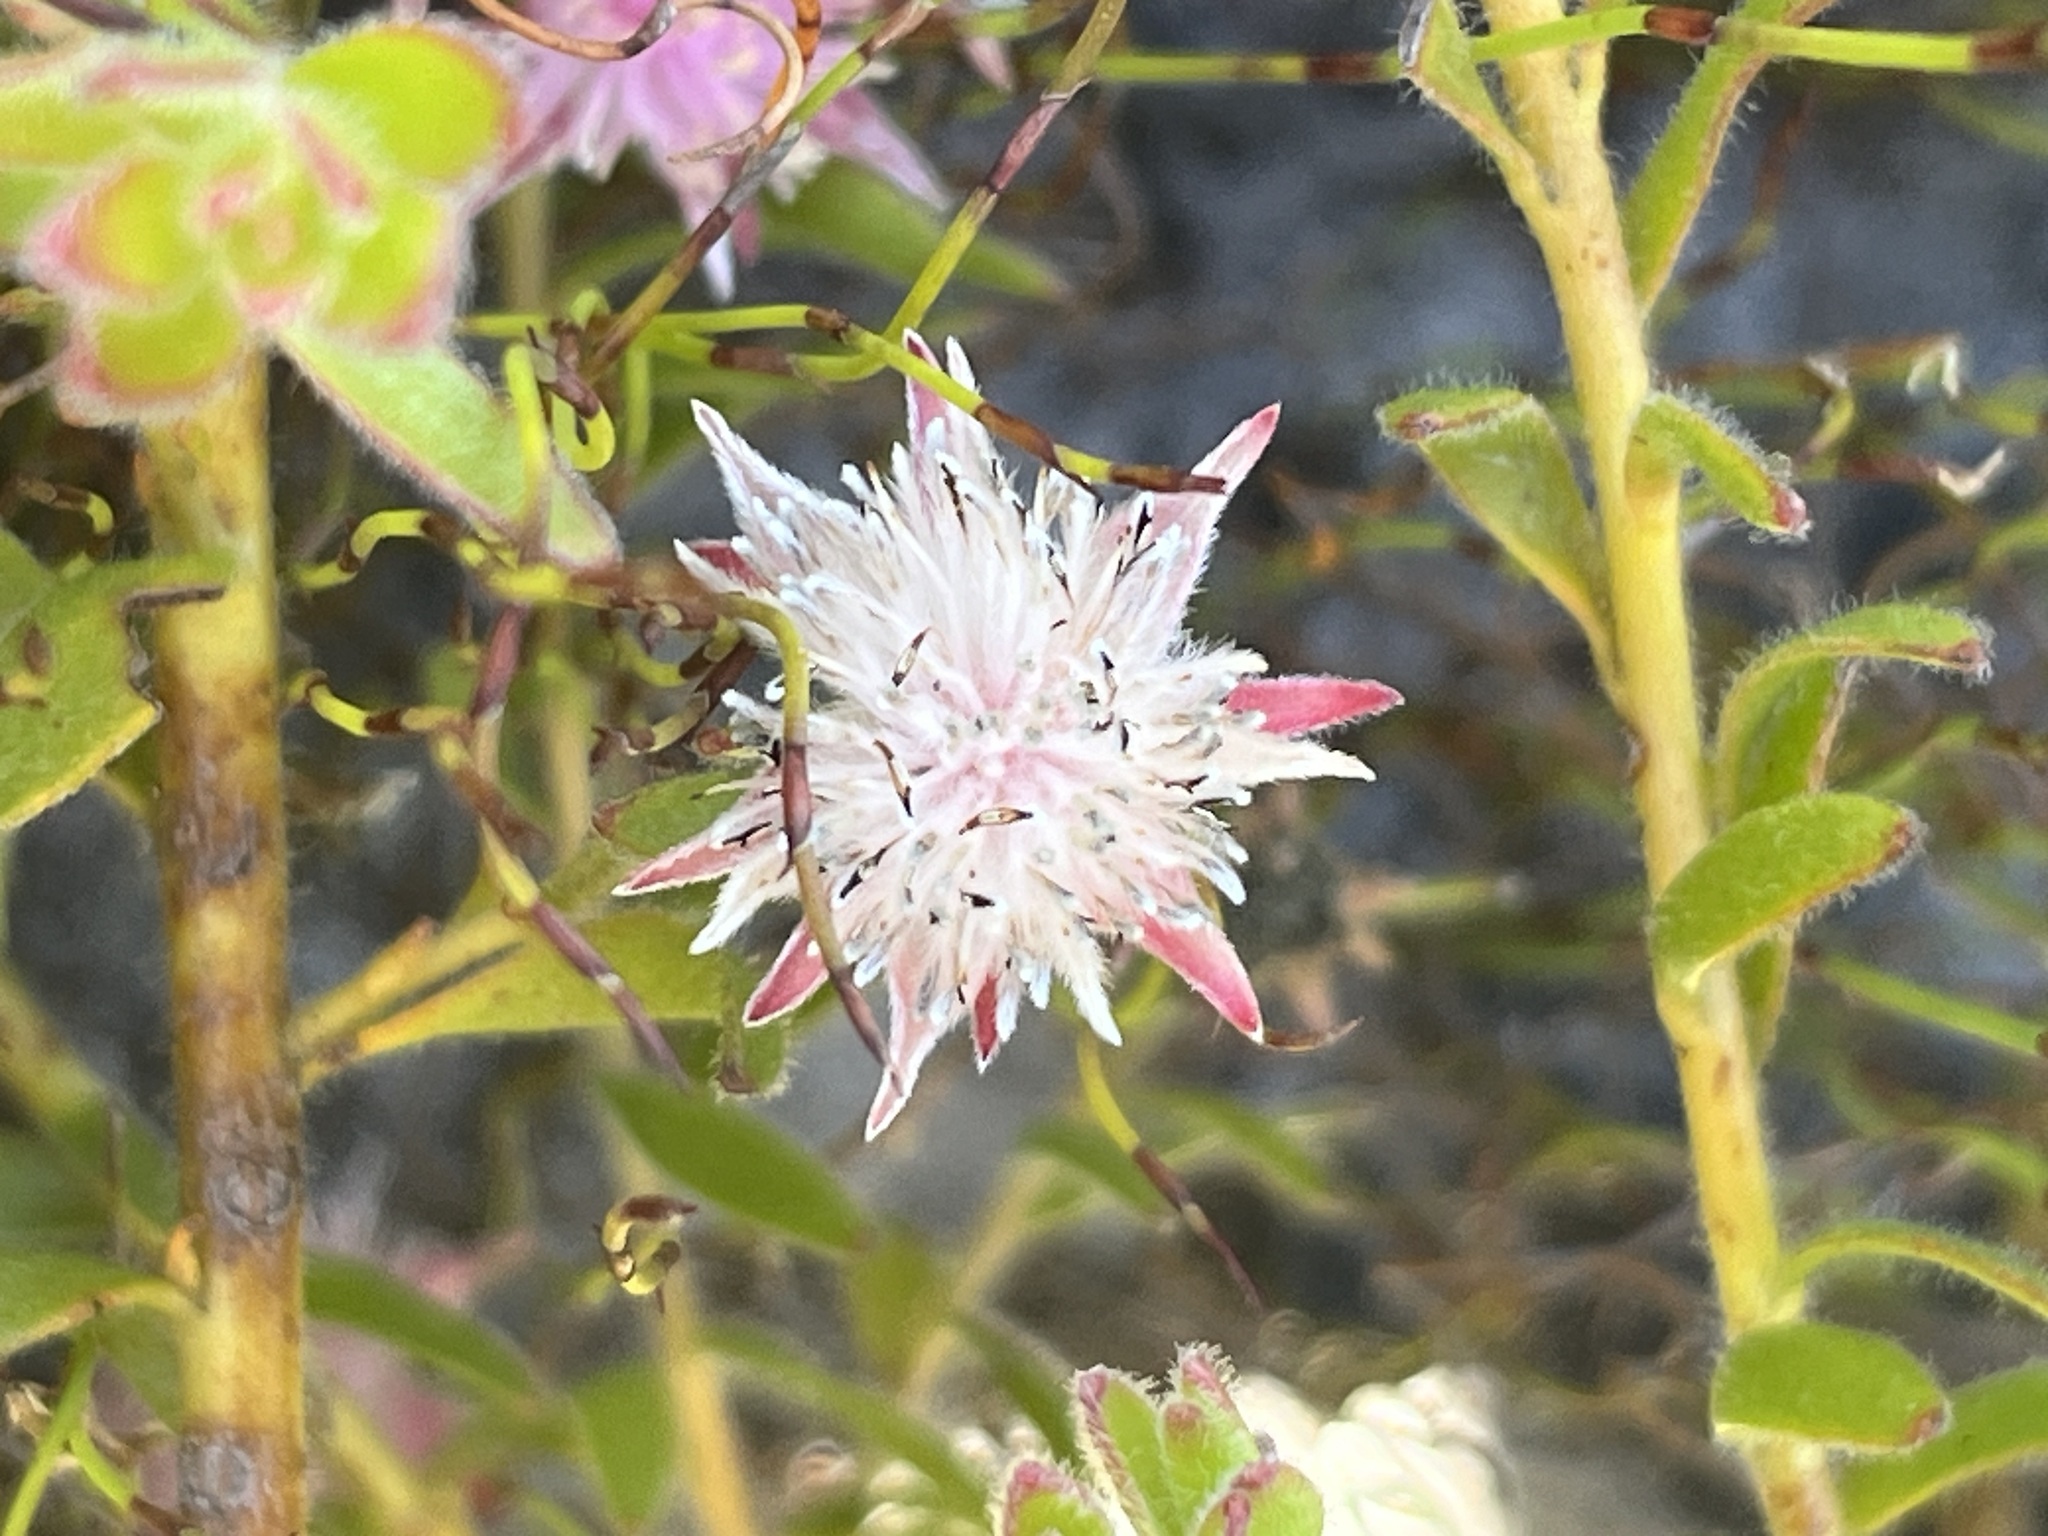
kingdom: Plantae
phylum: Tracheophyta
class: Magnoliopsida
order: Proteales
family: Proteaceae
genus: Diastella
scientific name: Diastella divaricata
